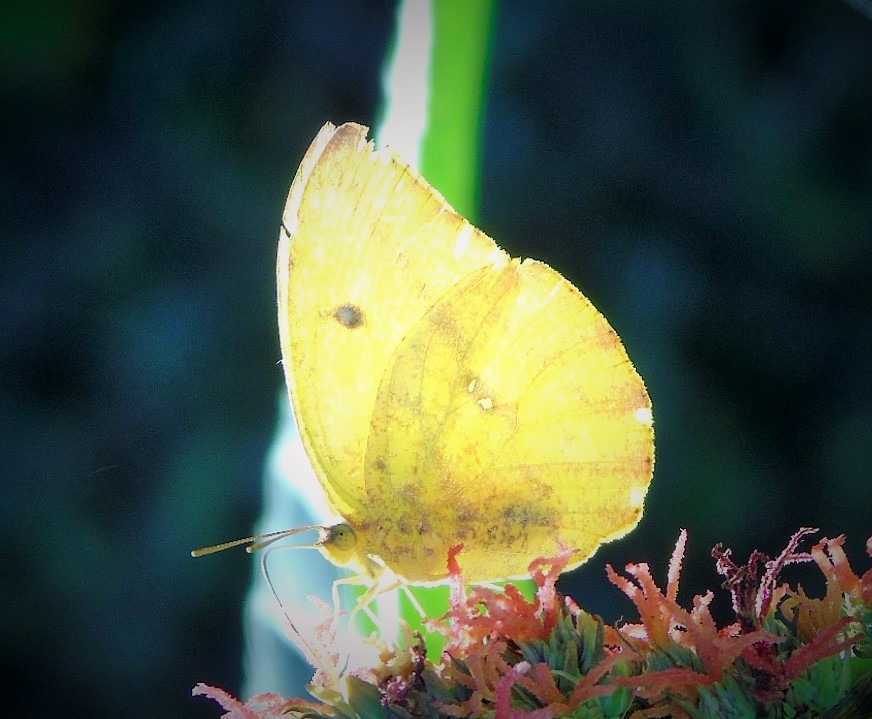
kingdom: Animalia
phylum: Arthropoda
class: Insecta
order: Lepidoptera
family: Pieridae
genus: Phoebis
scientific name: Phoebis agarithe
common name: Large orange sulphur
